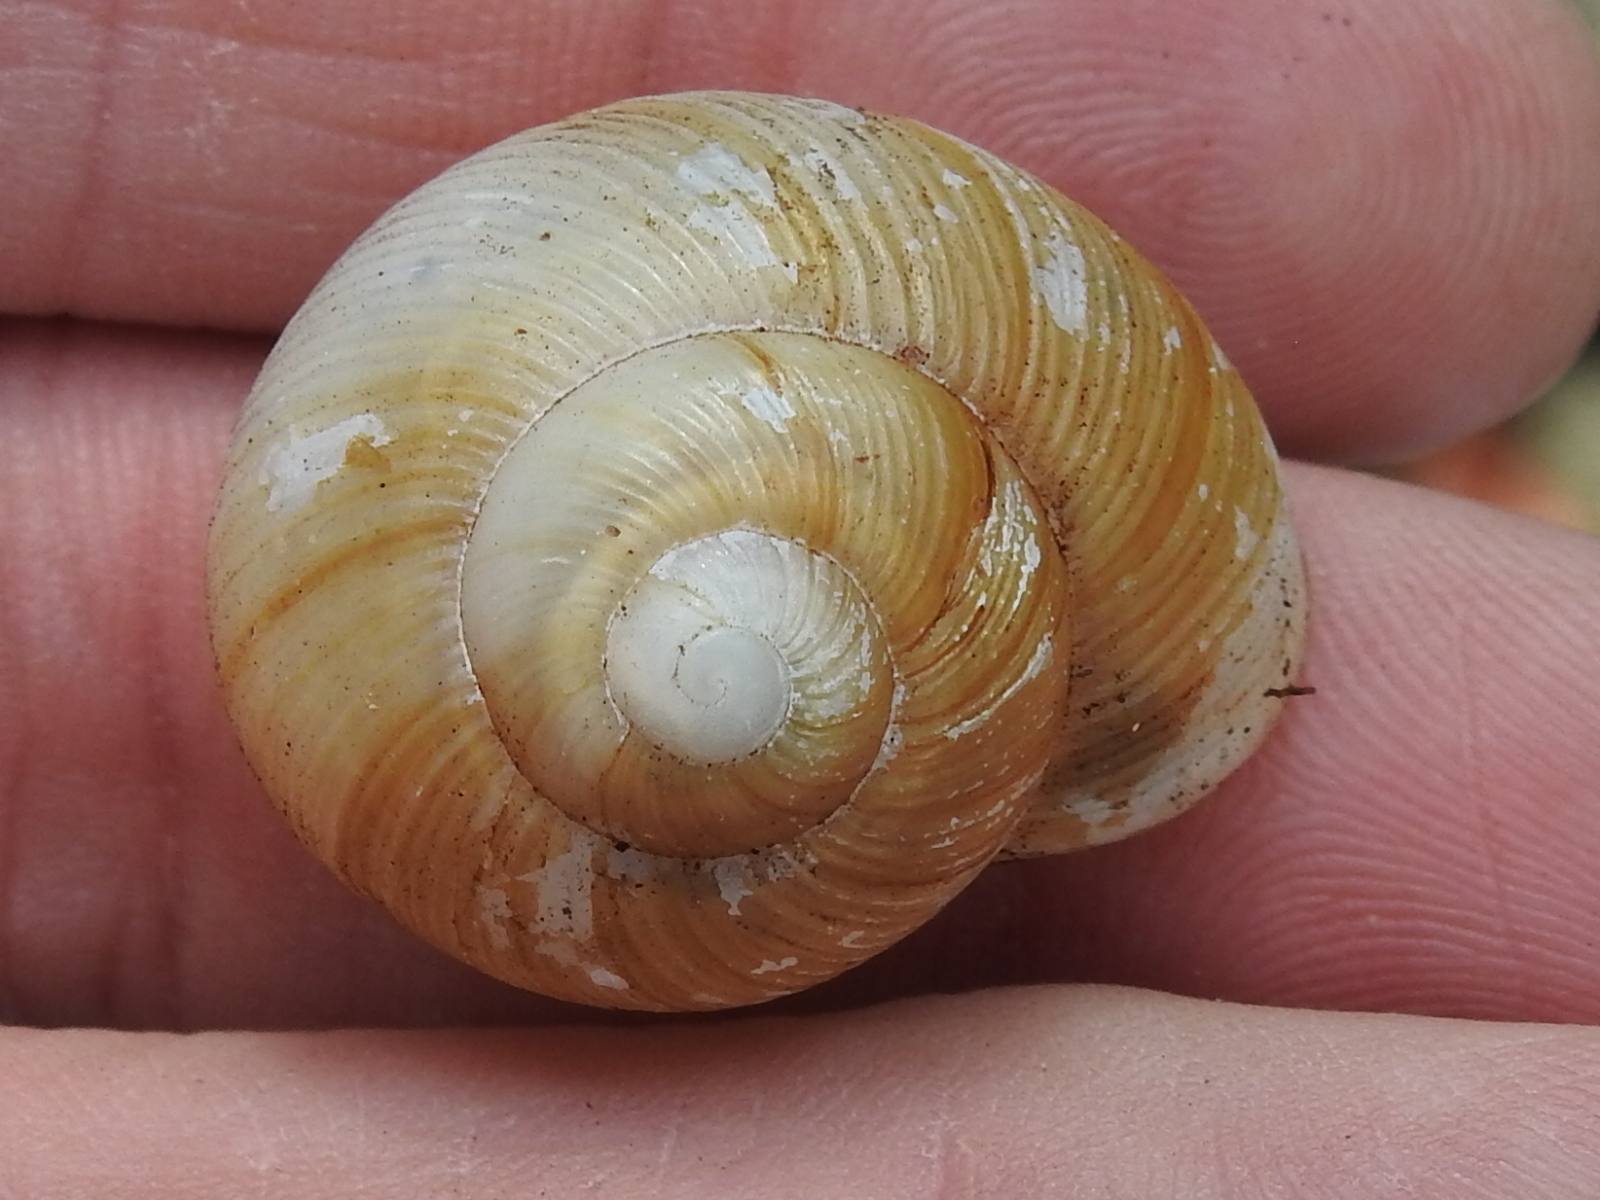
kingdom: Animalia
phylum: Mollusca
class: Gastropoda
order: Stylommatophora
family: Zachrysiidae
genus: Zachrysia
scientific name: Zachrysia provisoria
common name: Garden zachrysia
